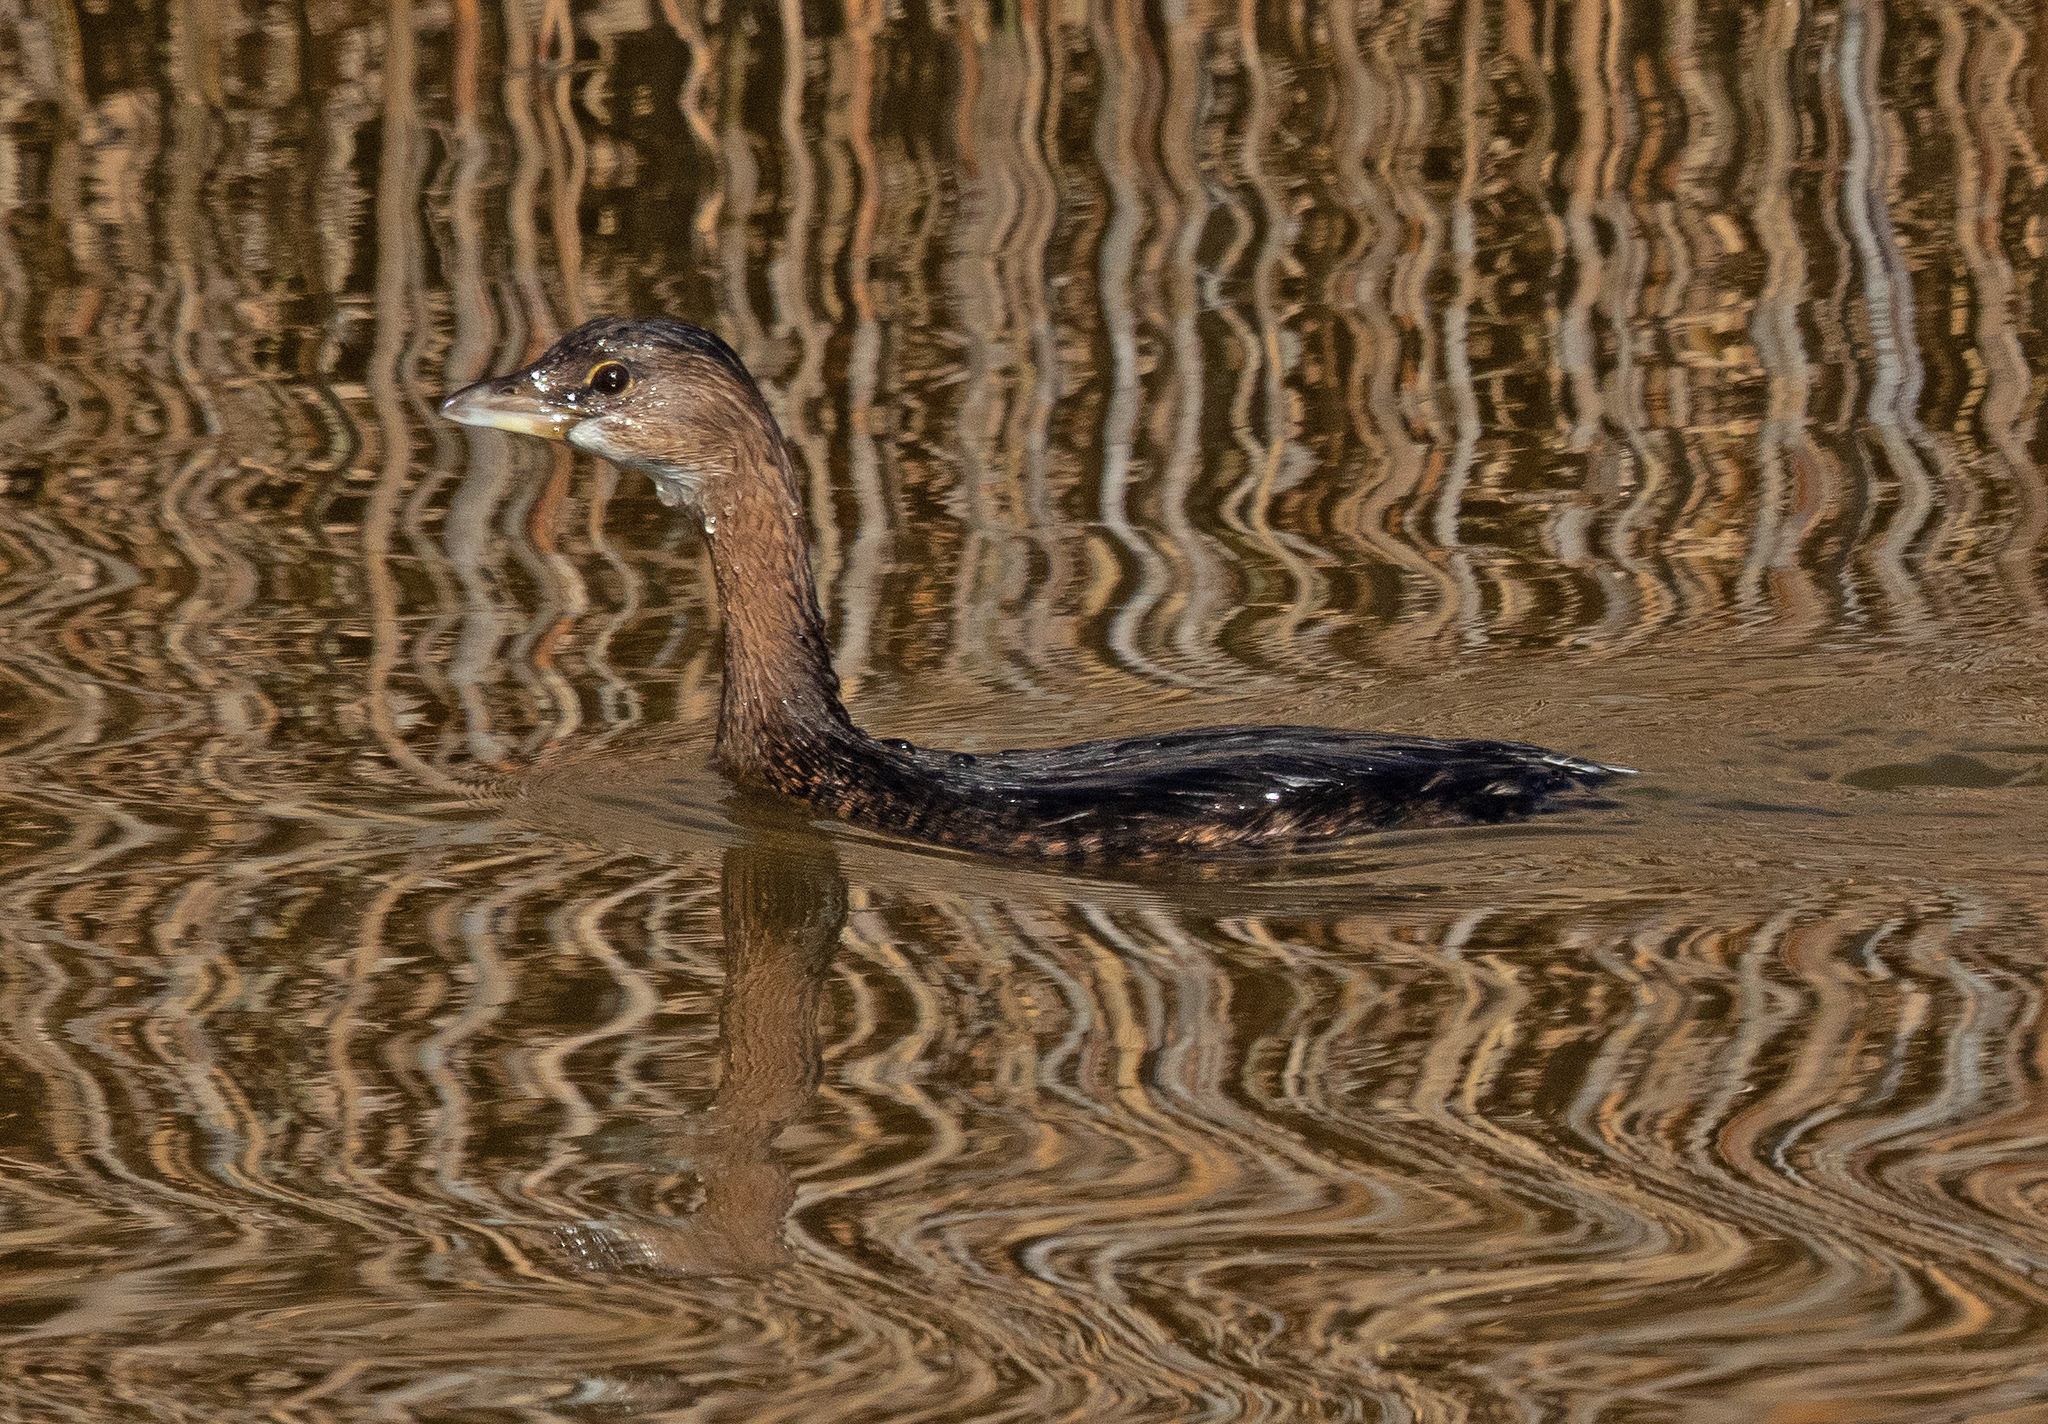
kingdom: Animalia
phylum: Chordata
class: Aves
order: Podicipediformes
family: Podicipedidae
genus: Podilymbus
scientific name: Podilymbus podiceps
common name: Pied-billed grebe
